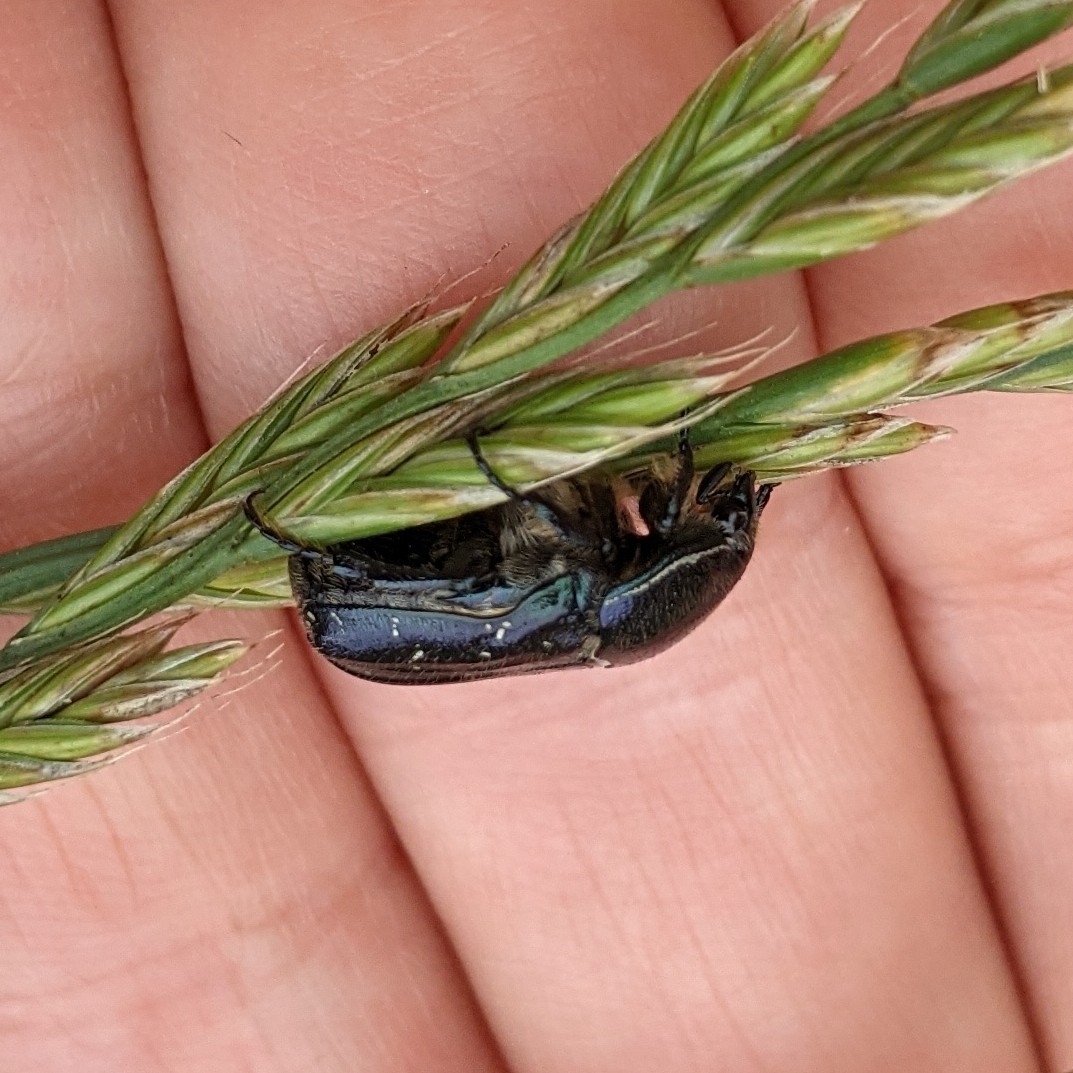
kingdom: Animalia
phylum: Arthropoda
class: Insecta
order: Coleoptera
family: Scarabaeidae
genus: Euphoria
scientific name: Euphoria sepulcralis
